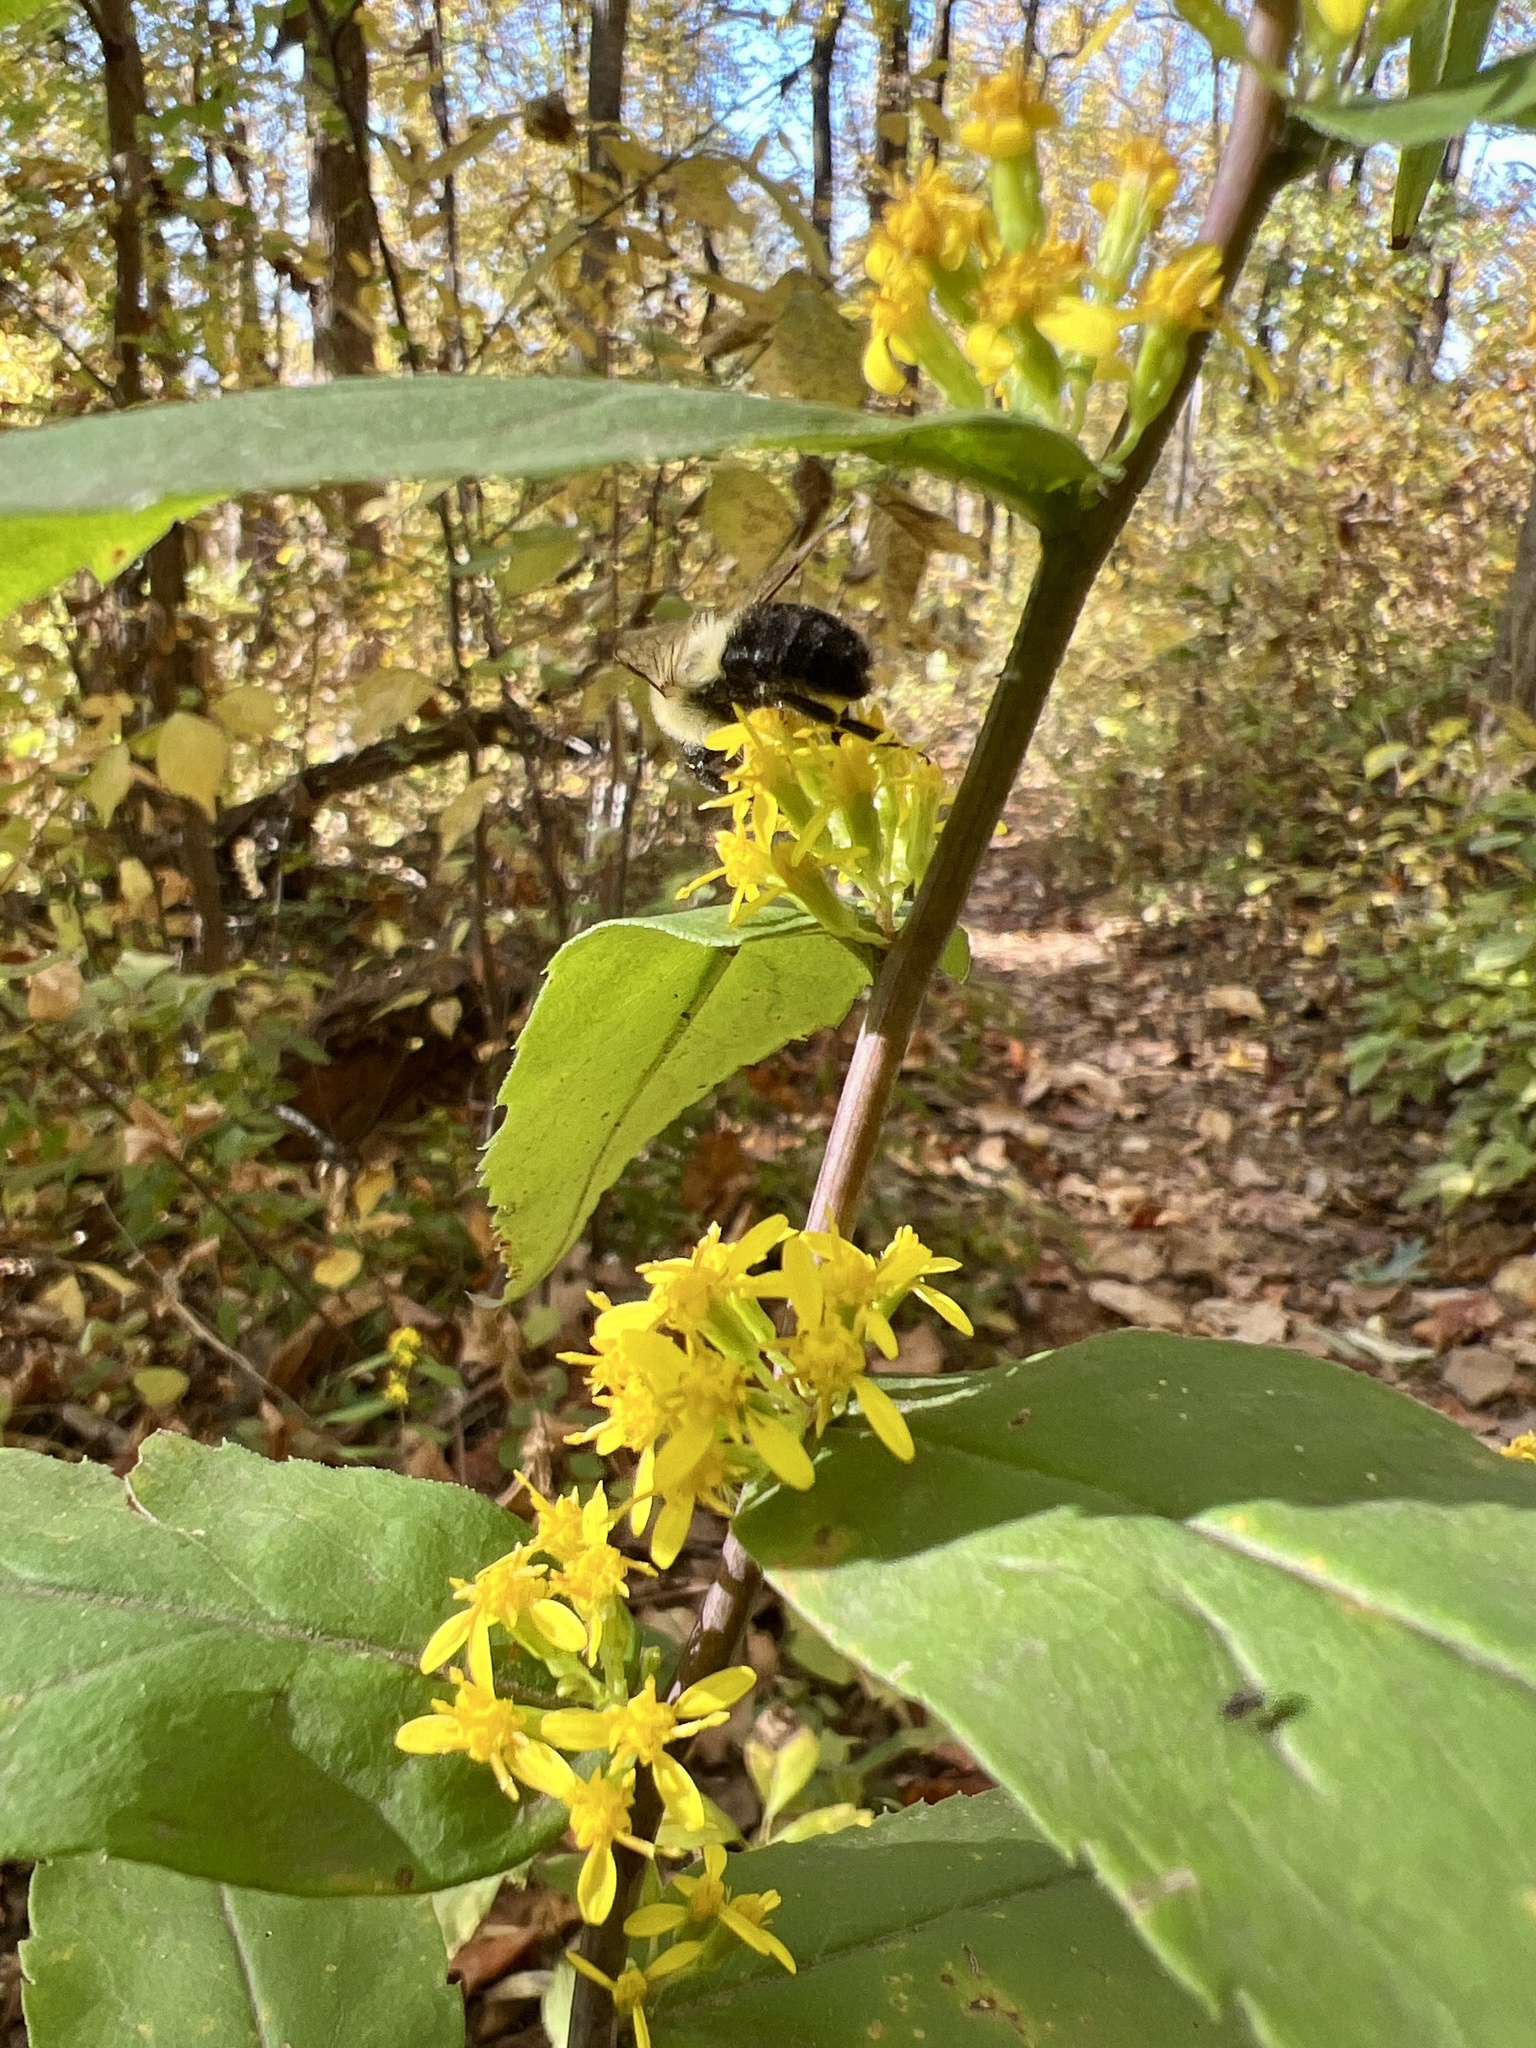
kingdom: Animalia
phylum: Arthropoda
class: Insecta
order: Hymenoptera
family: Apidae
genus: Bombus
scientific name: Bombus impatiens
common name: Common eastern bumble bee
